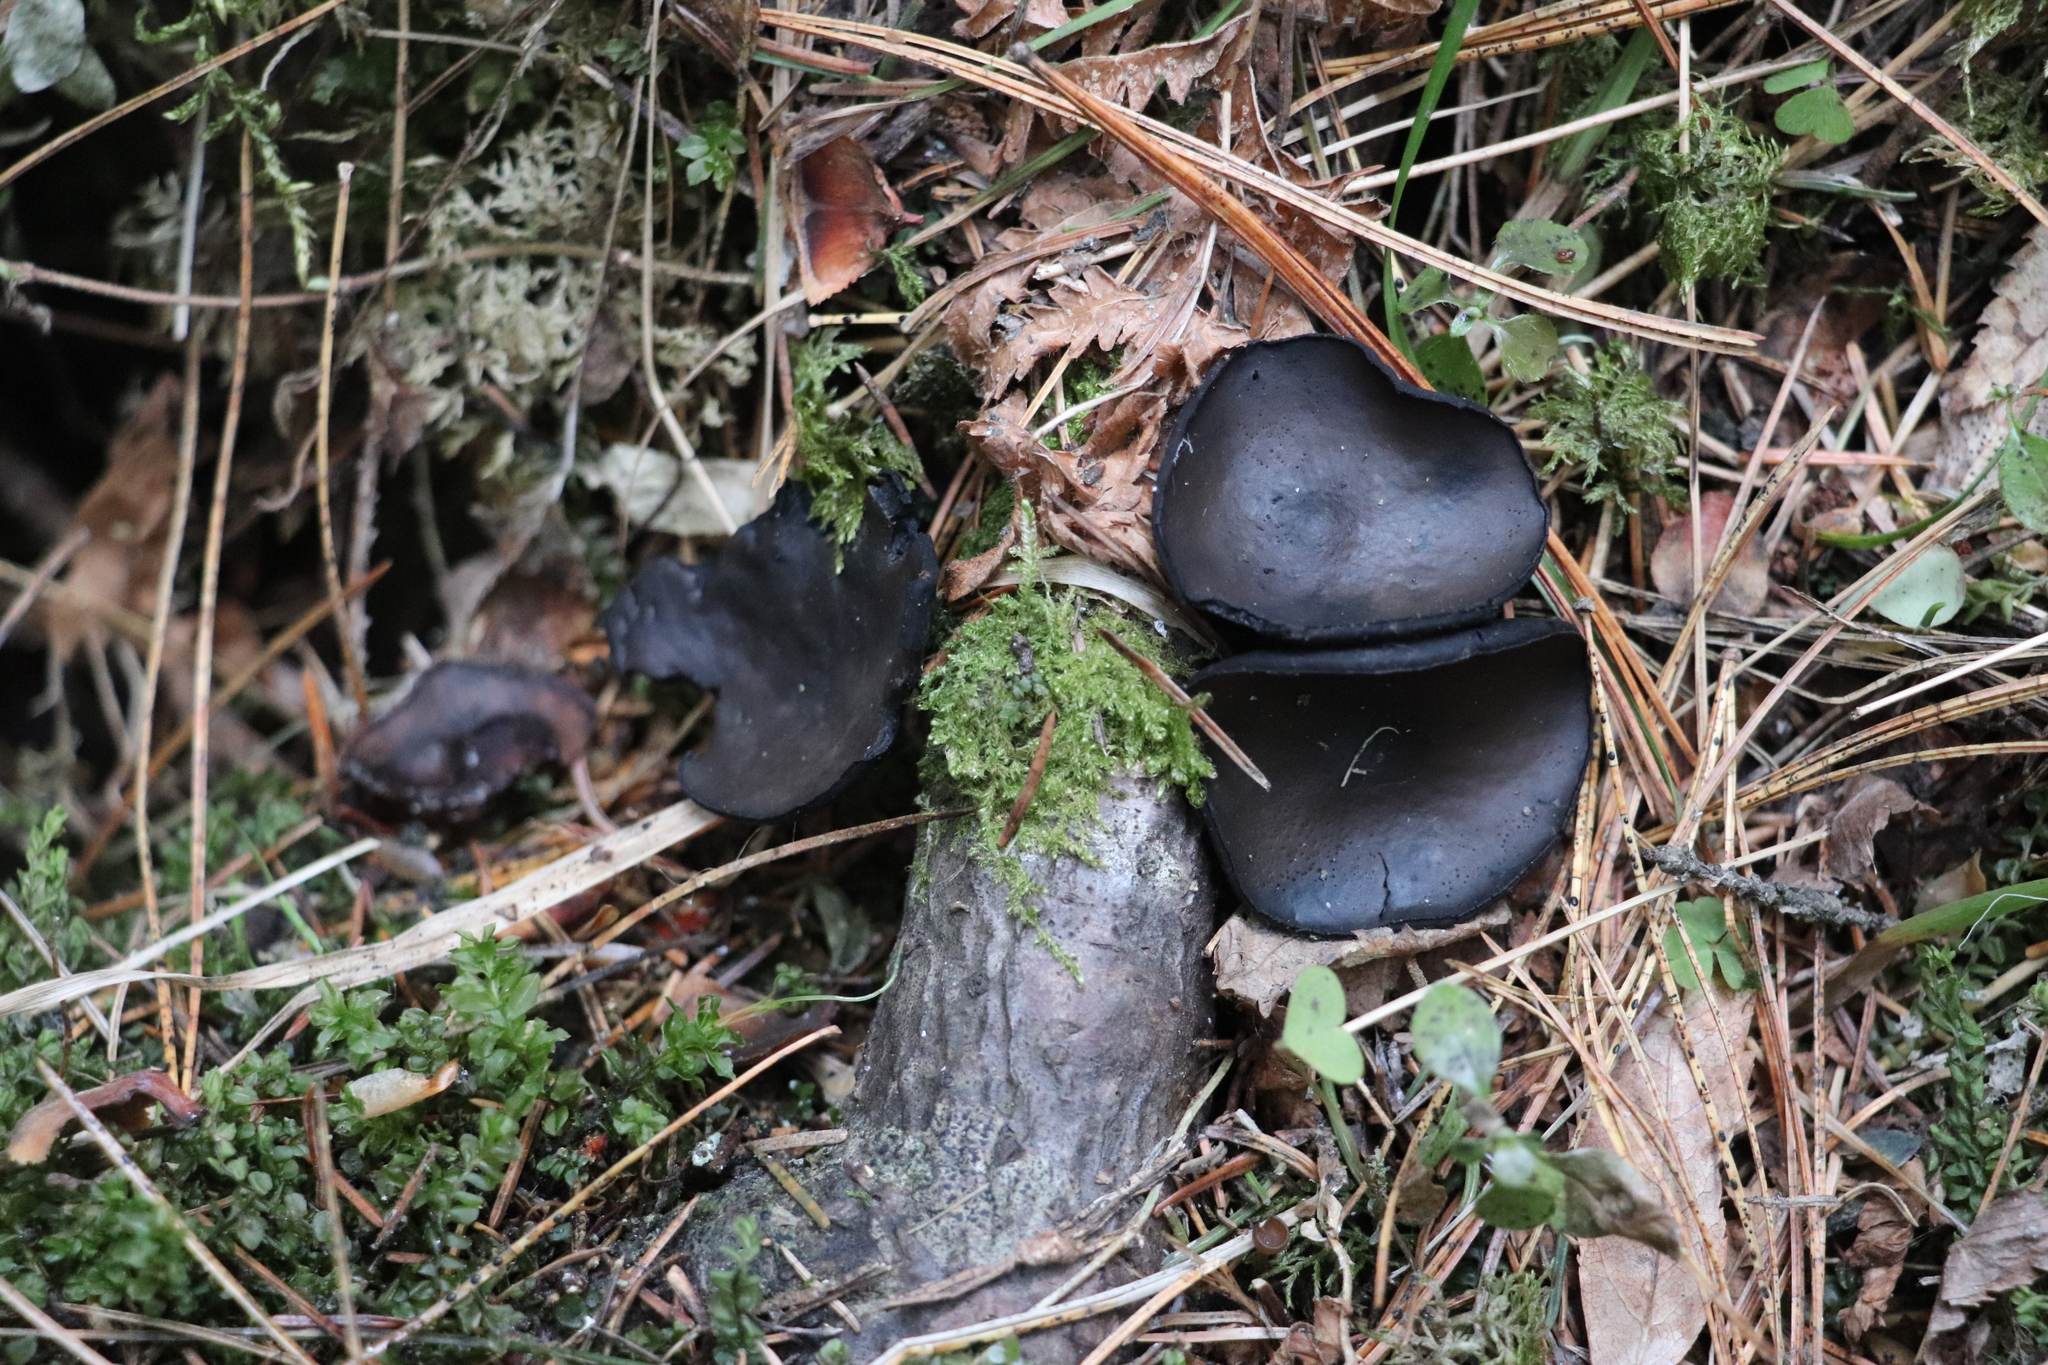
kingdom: Fungi
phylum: Ascomycota
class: Pezizomycetes
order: Pezizales
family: Sarcosomataceae
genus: Pseudoplectania
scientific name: Pseudoplectania melaena
